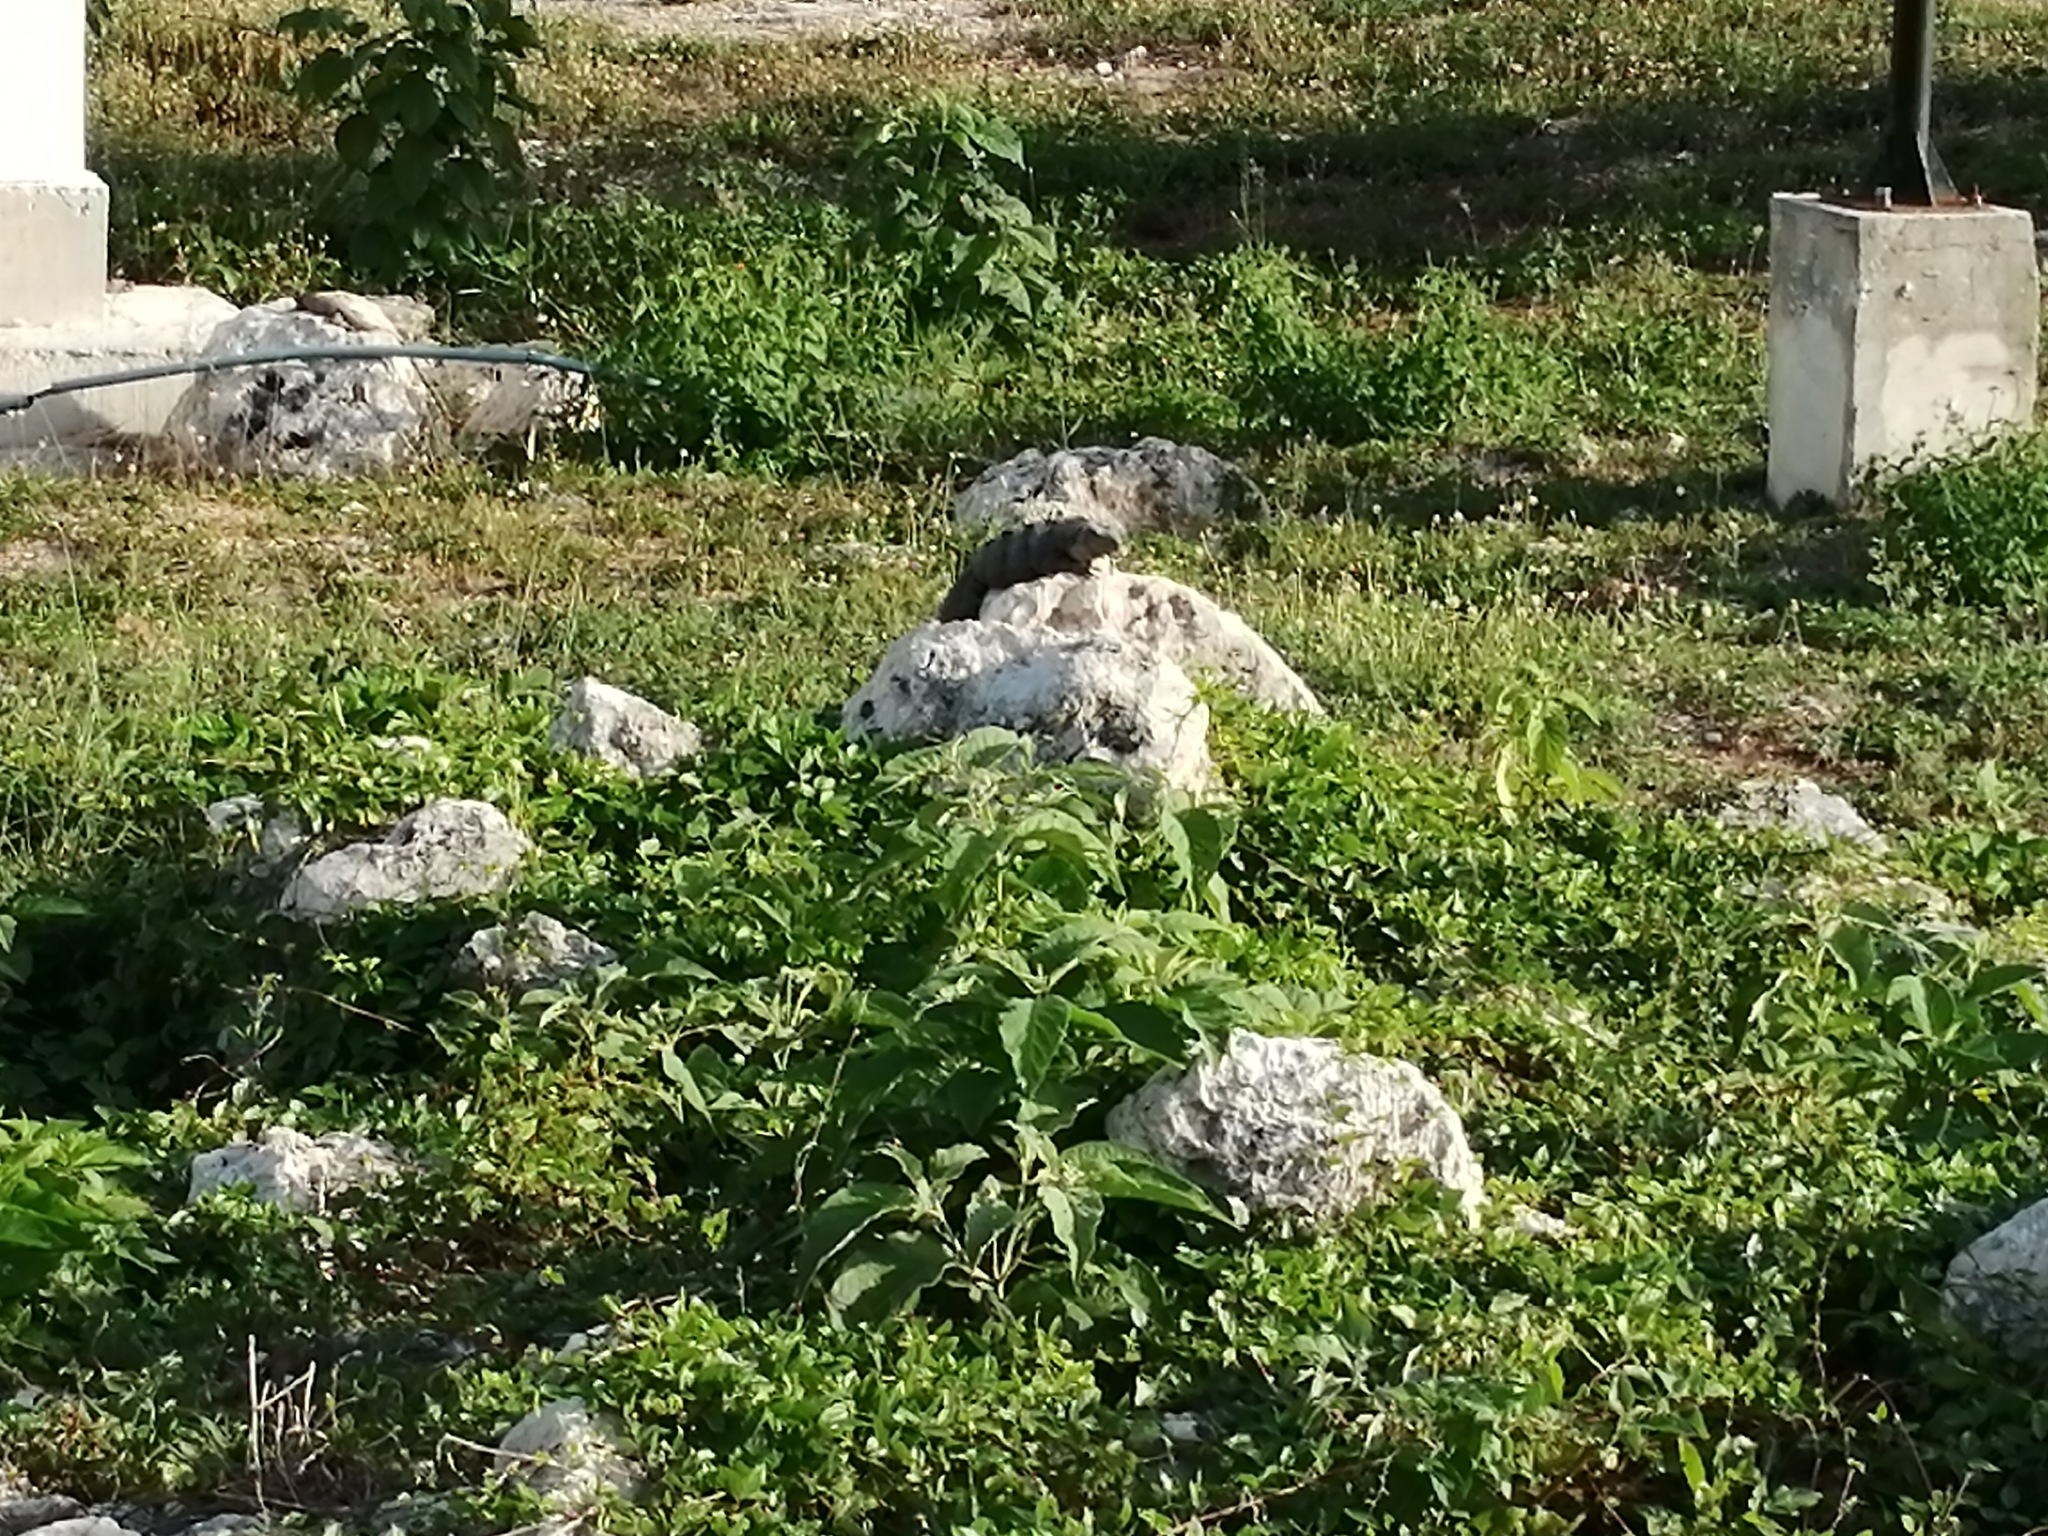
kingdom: Animalia
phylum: Chordata
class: Squamata
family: Iguanidae
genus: Ctenosaura
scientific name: Ctenosaura similis
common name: Black spiny-tailed iguana
